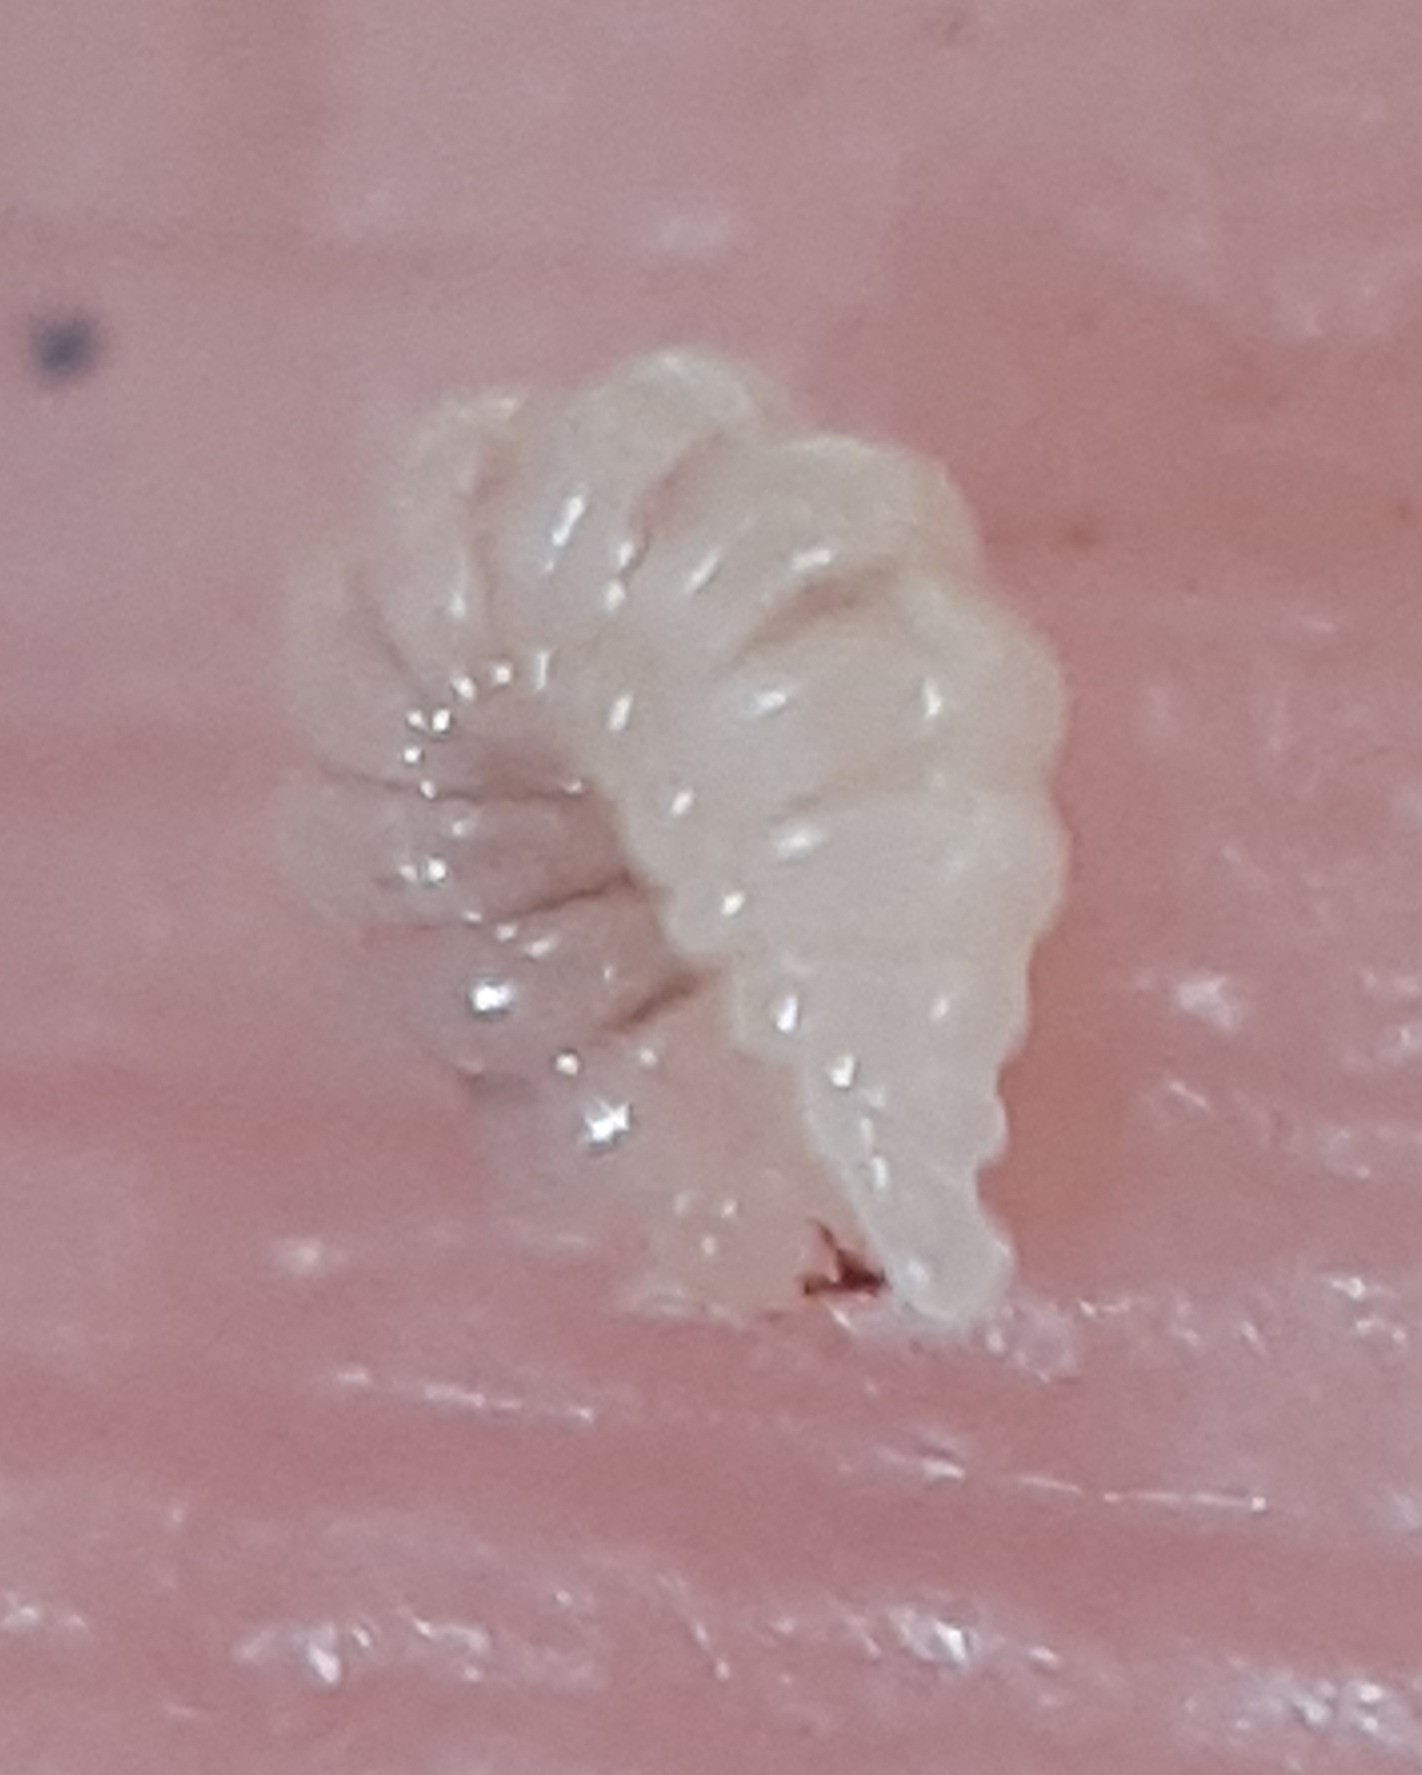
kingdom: Animalia
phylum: Arthropoda
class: Insecta
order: Hymenoptera
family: Cynipidae
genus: Diplolepis
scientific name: Diplolepis spinosissimae
